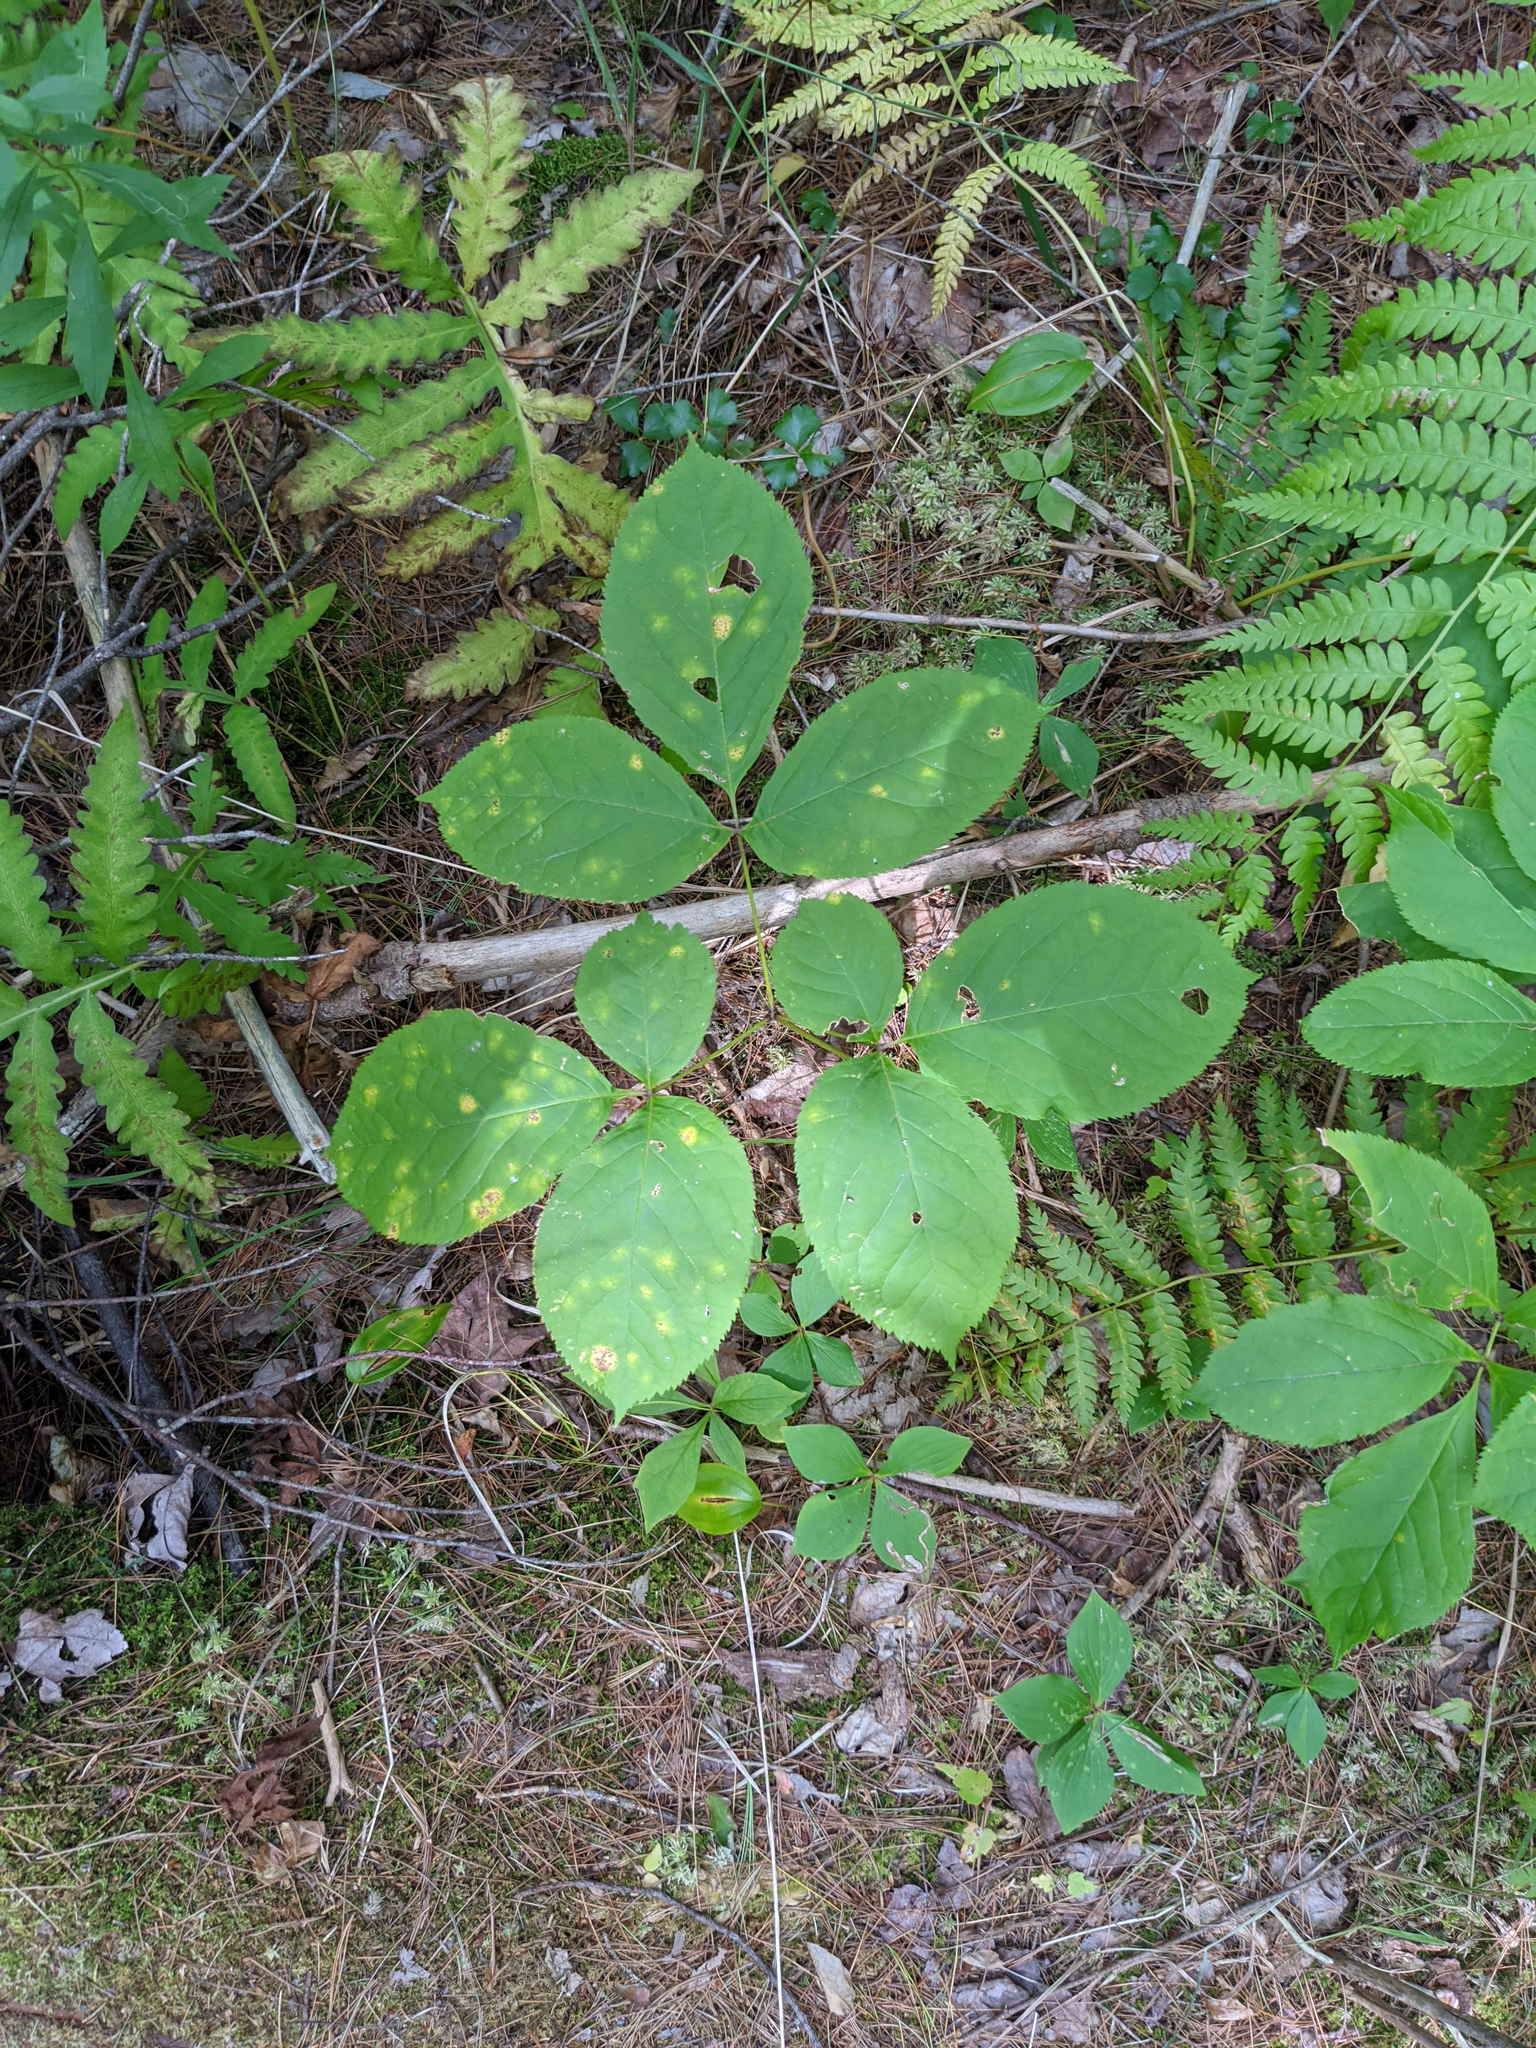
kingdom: Plantae
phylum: Tracheophyta
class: Magnoliopsida
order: Apiales
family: Araliaceae
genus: Aralia
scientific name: Aralia nudicaulis
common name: Wild sarsaparilla
